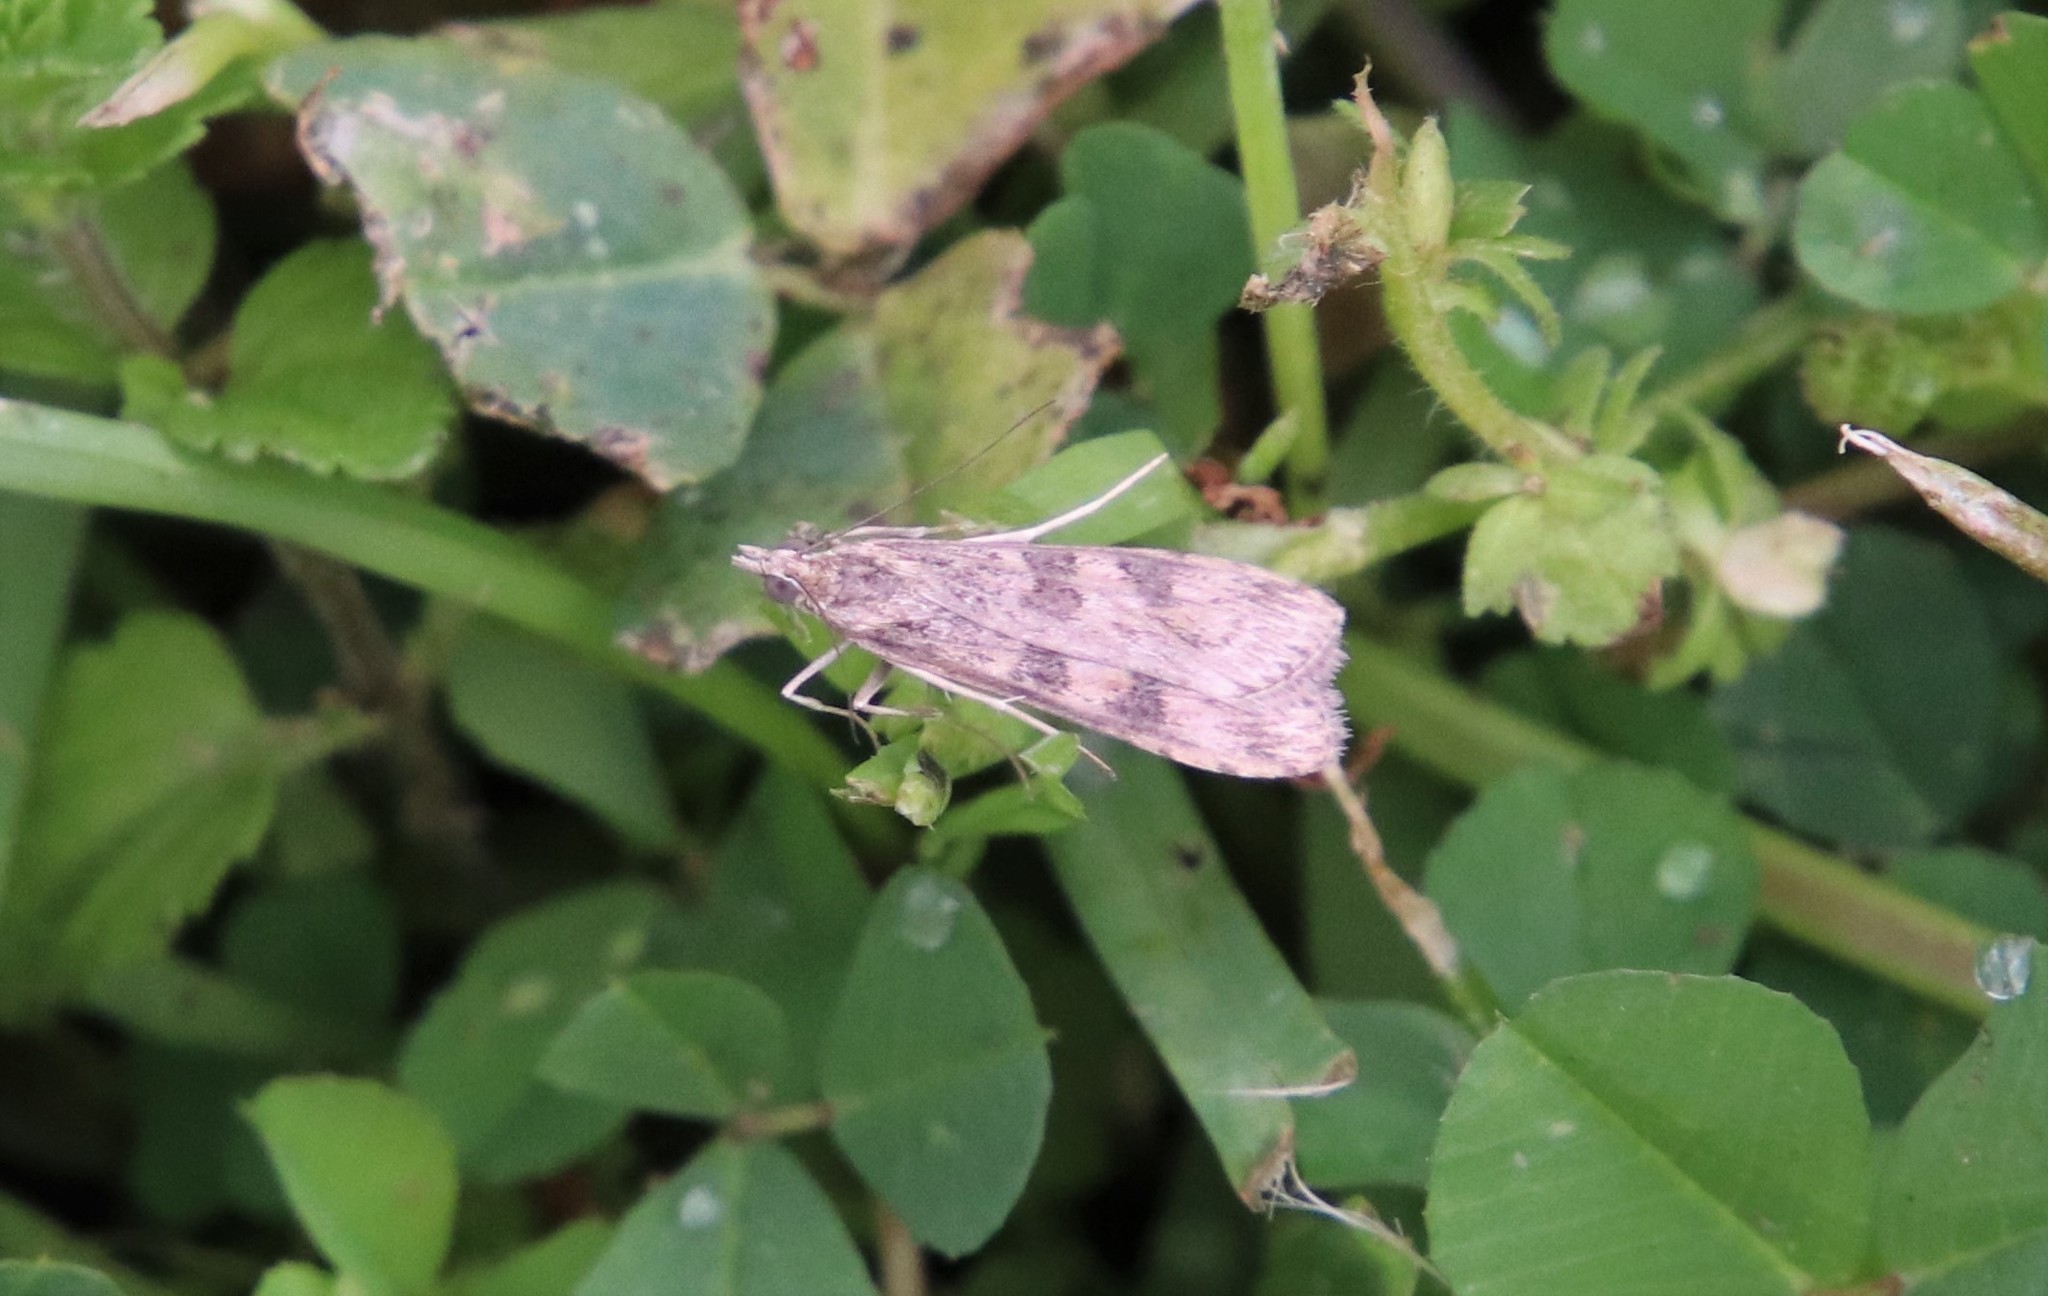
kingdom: Animalia
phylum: Arthropoda
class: Insecta
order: Lepidoptera
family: Crambidae
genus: Nomophila
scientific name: Nomophila nearctica
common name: American rush veneer
